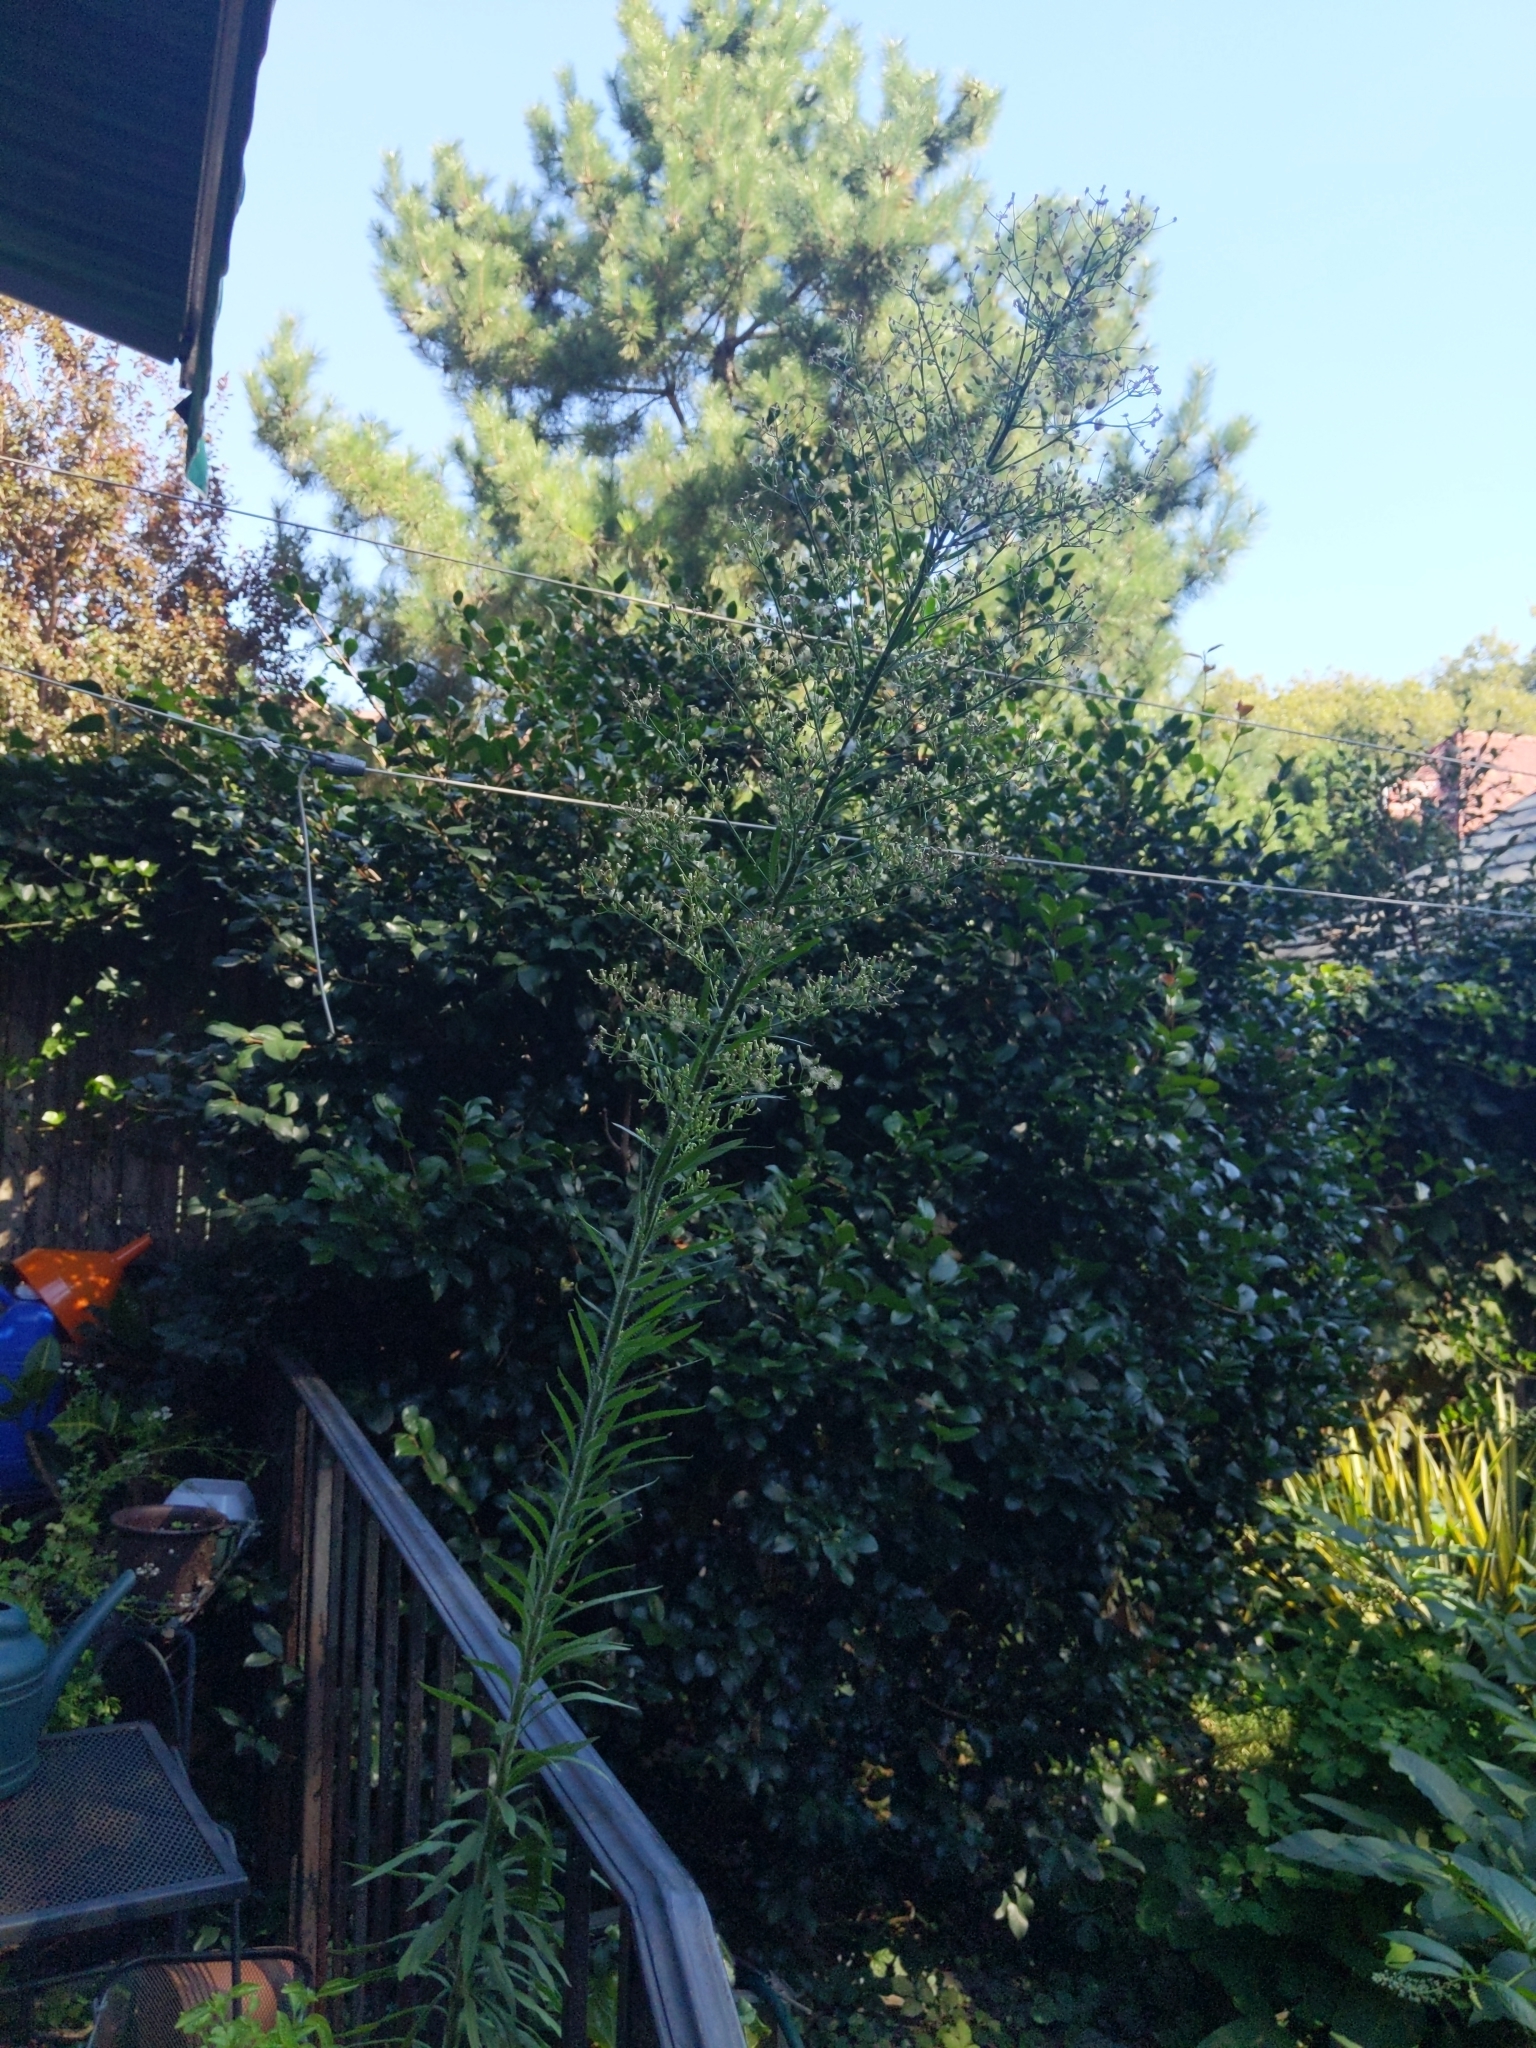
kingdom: Plantae
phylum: Tracheophyta
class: Magnoliopsida
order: Asterales
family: Asteraceae
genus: Erigeron
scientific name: Erigeron canadensis
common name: Canadian fleabane
